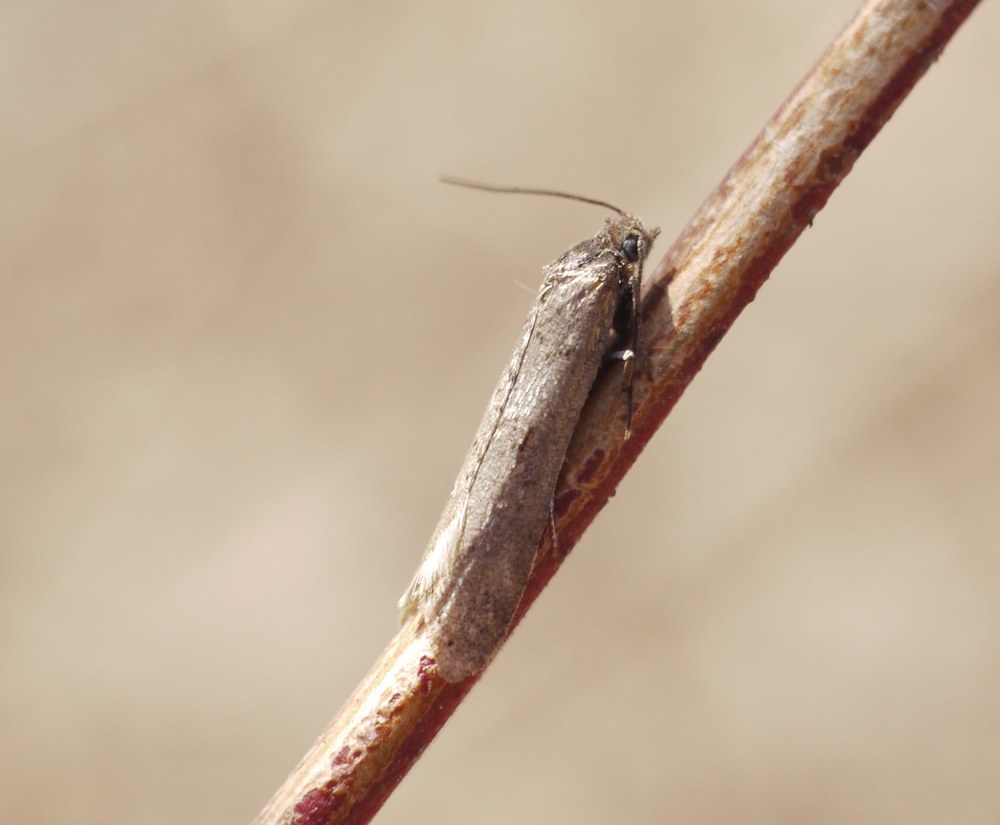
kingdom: Animalia
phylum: Arthropoda
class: Insecta
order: Lepidoptera
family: Tortricidae
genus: Tortricodes
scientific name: Tortricodes alternella
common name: Winter shade
